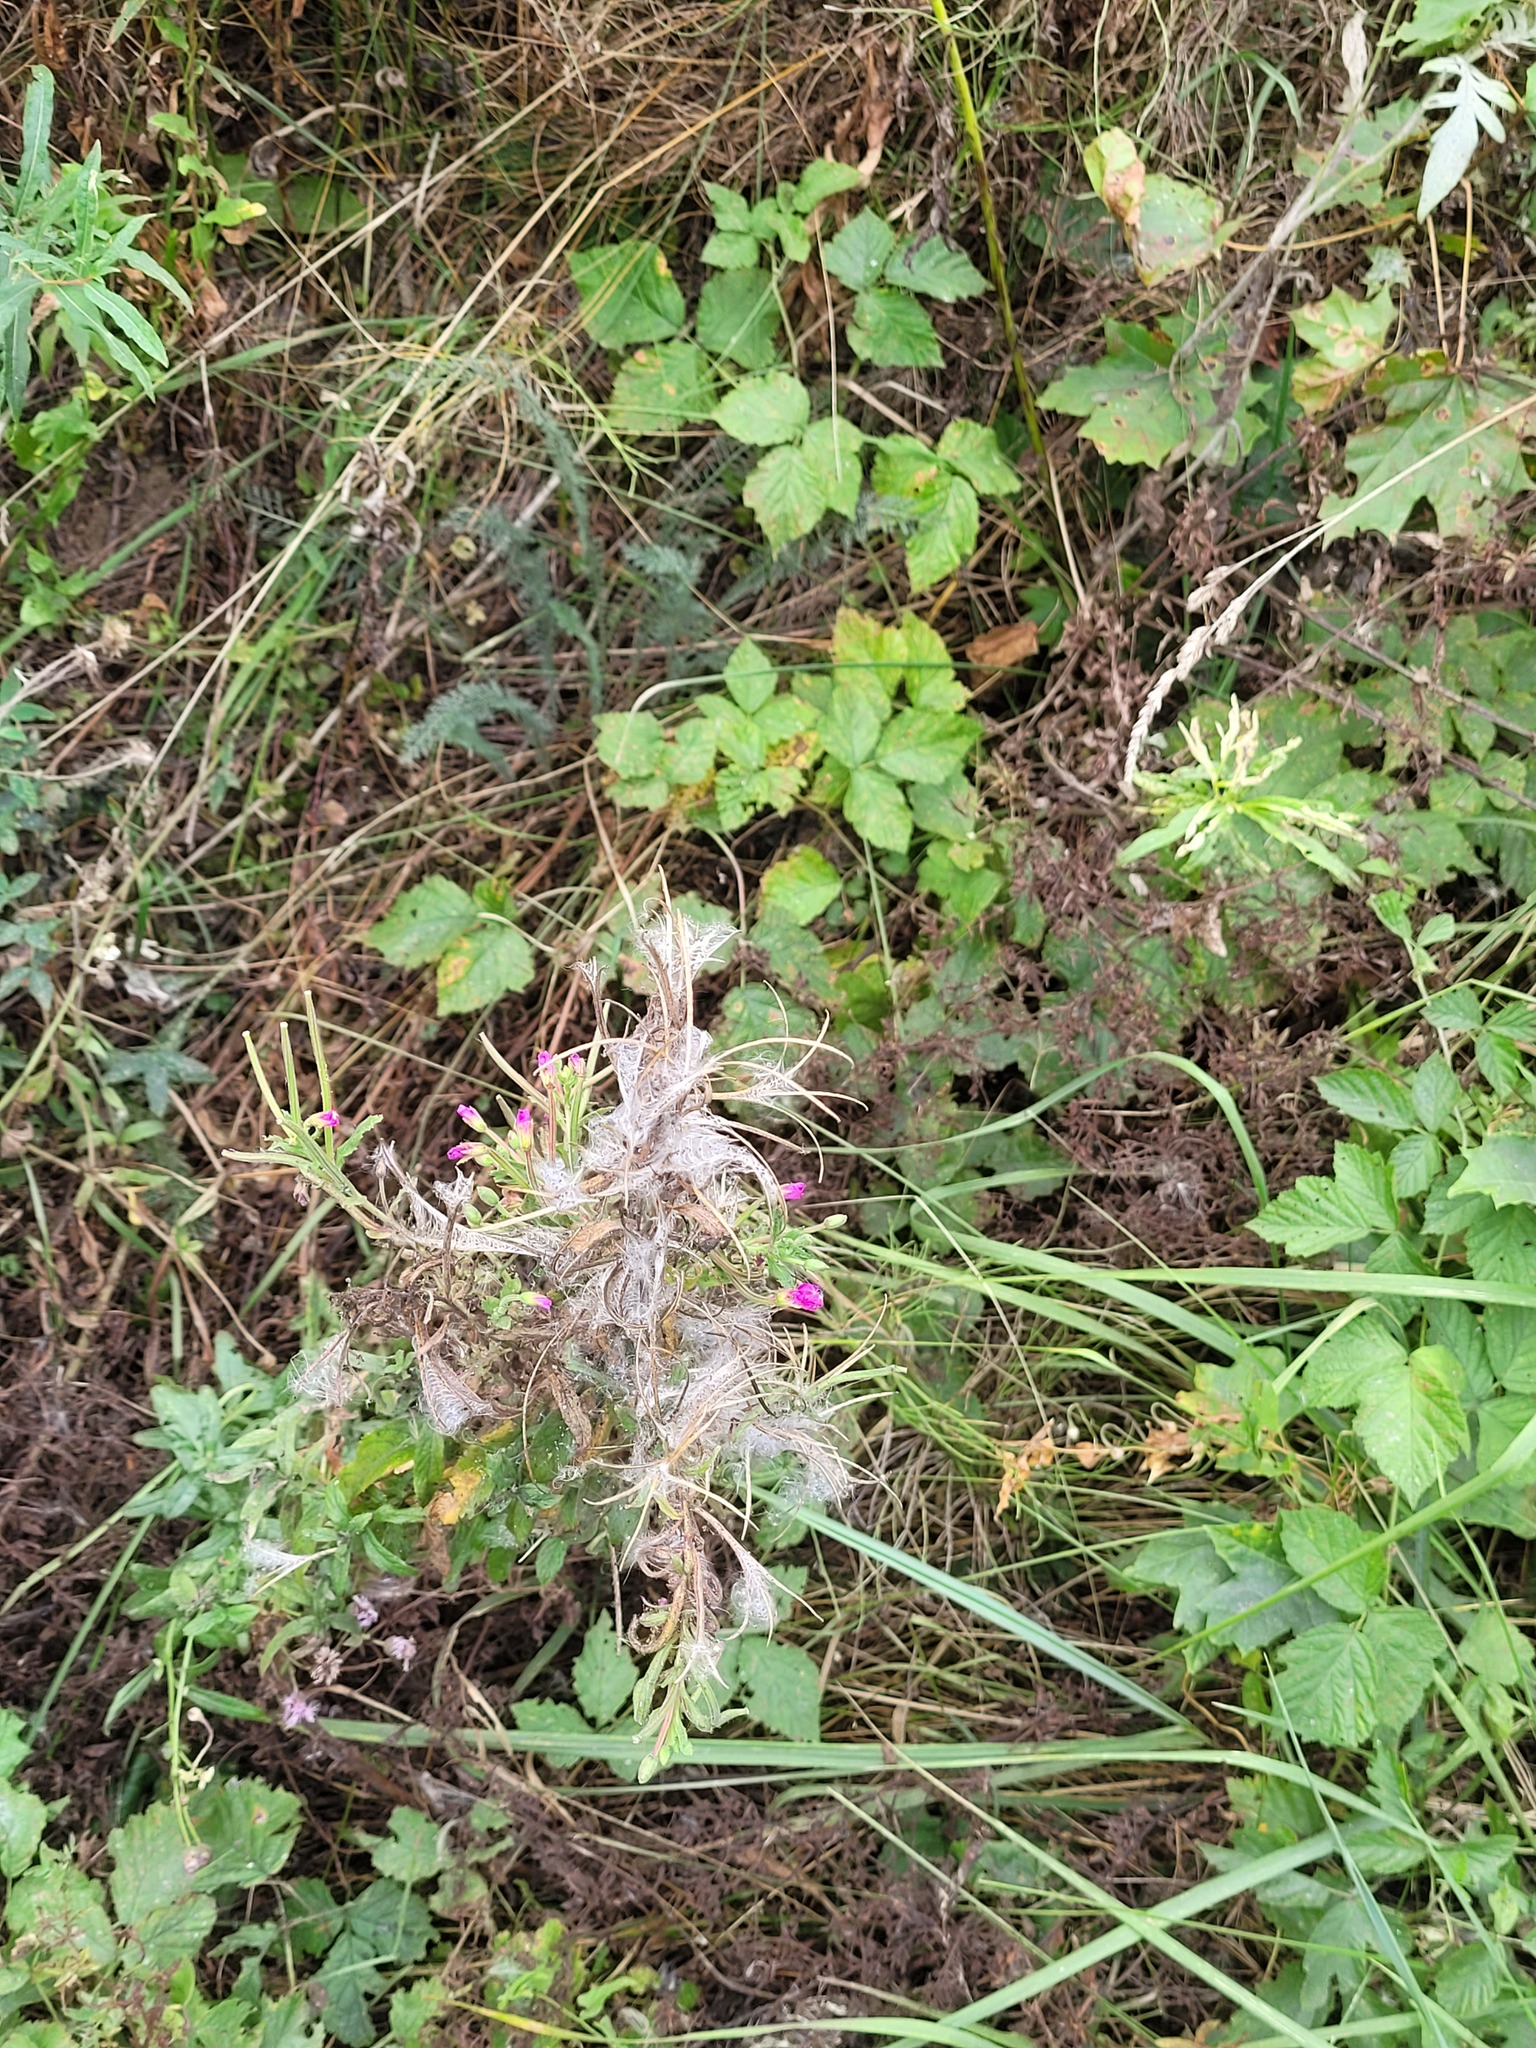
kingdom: Plantae
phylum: Tracheophyta
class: Magnoliopsida
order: Myrtales
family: Onagraceae
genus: Epilobium
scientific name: Epilobium hirsutum
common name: Great willowherb
